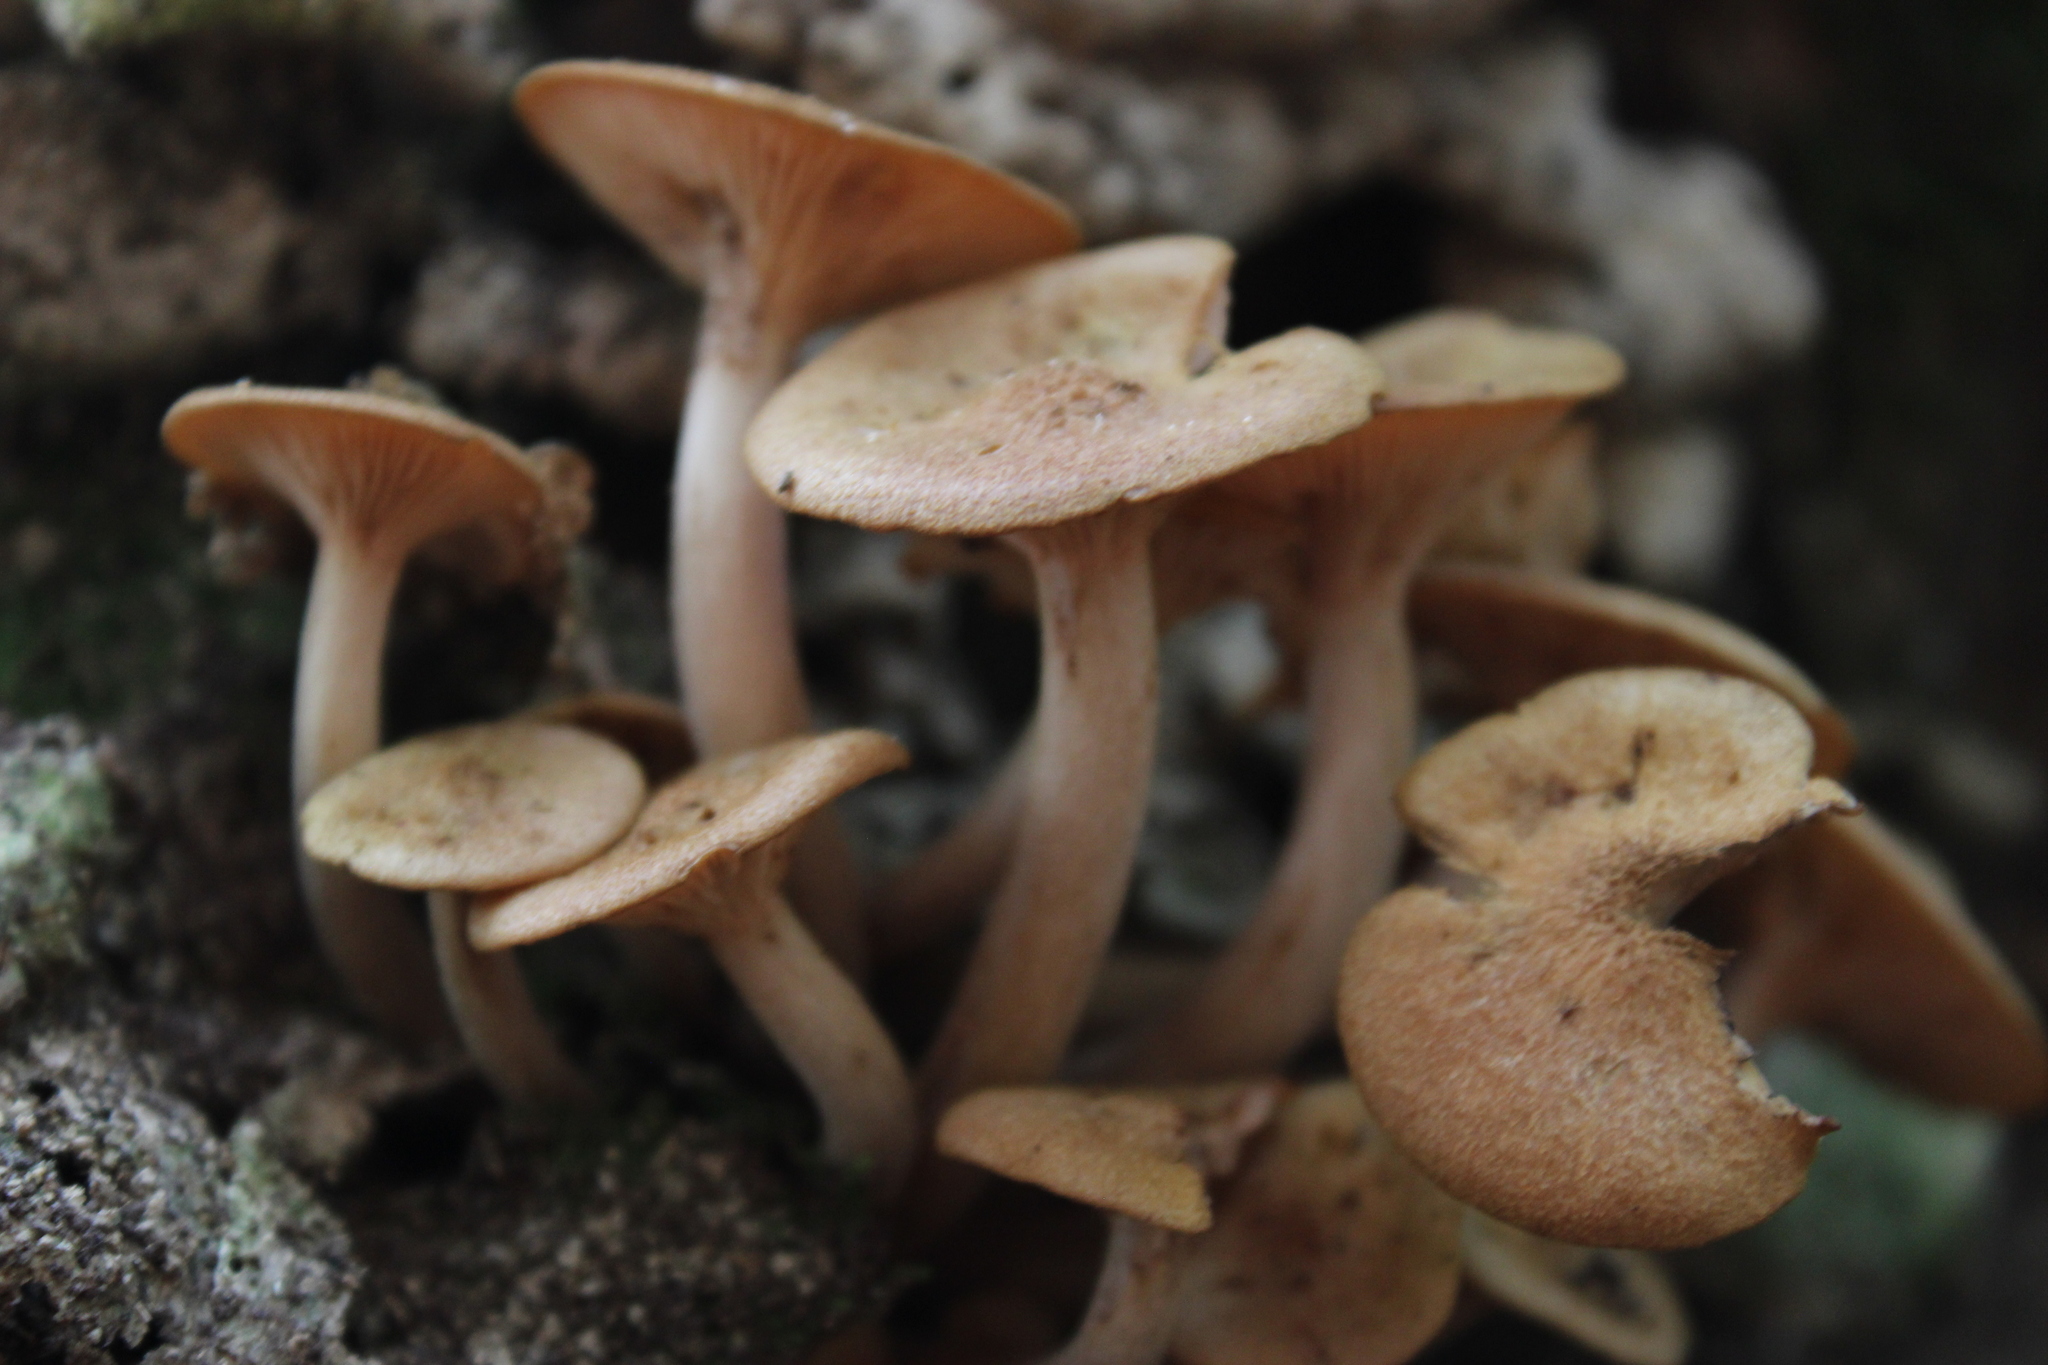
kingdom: Fungi
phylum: Basidiomycota
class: Agaricomycetes
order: Agaricales
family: Physalacriaceae
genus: Desarmillaria
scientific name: Desarmillaria caespitosa
